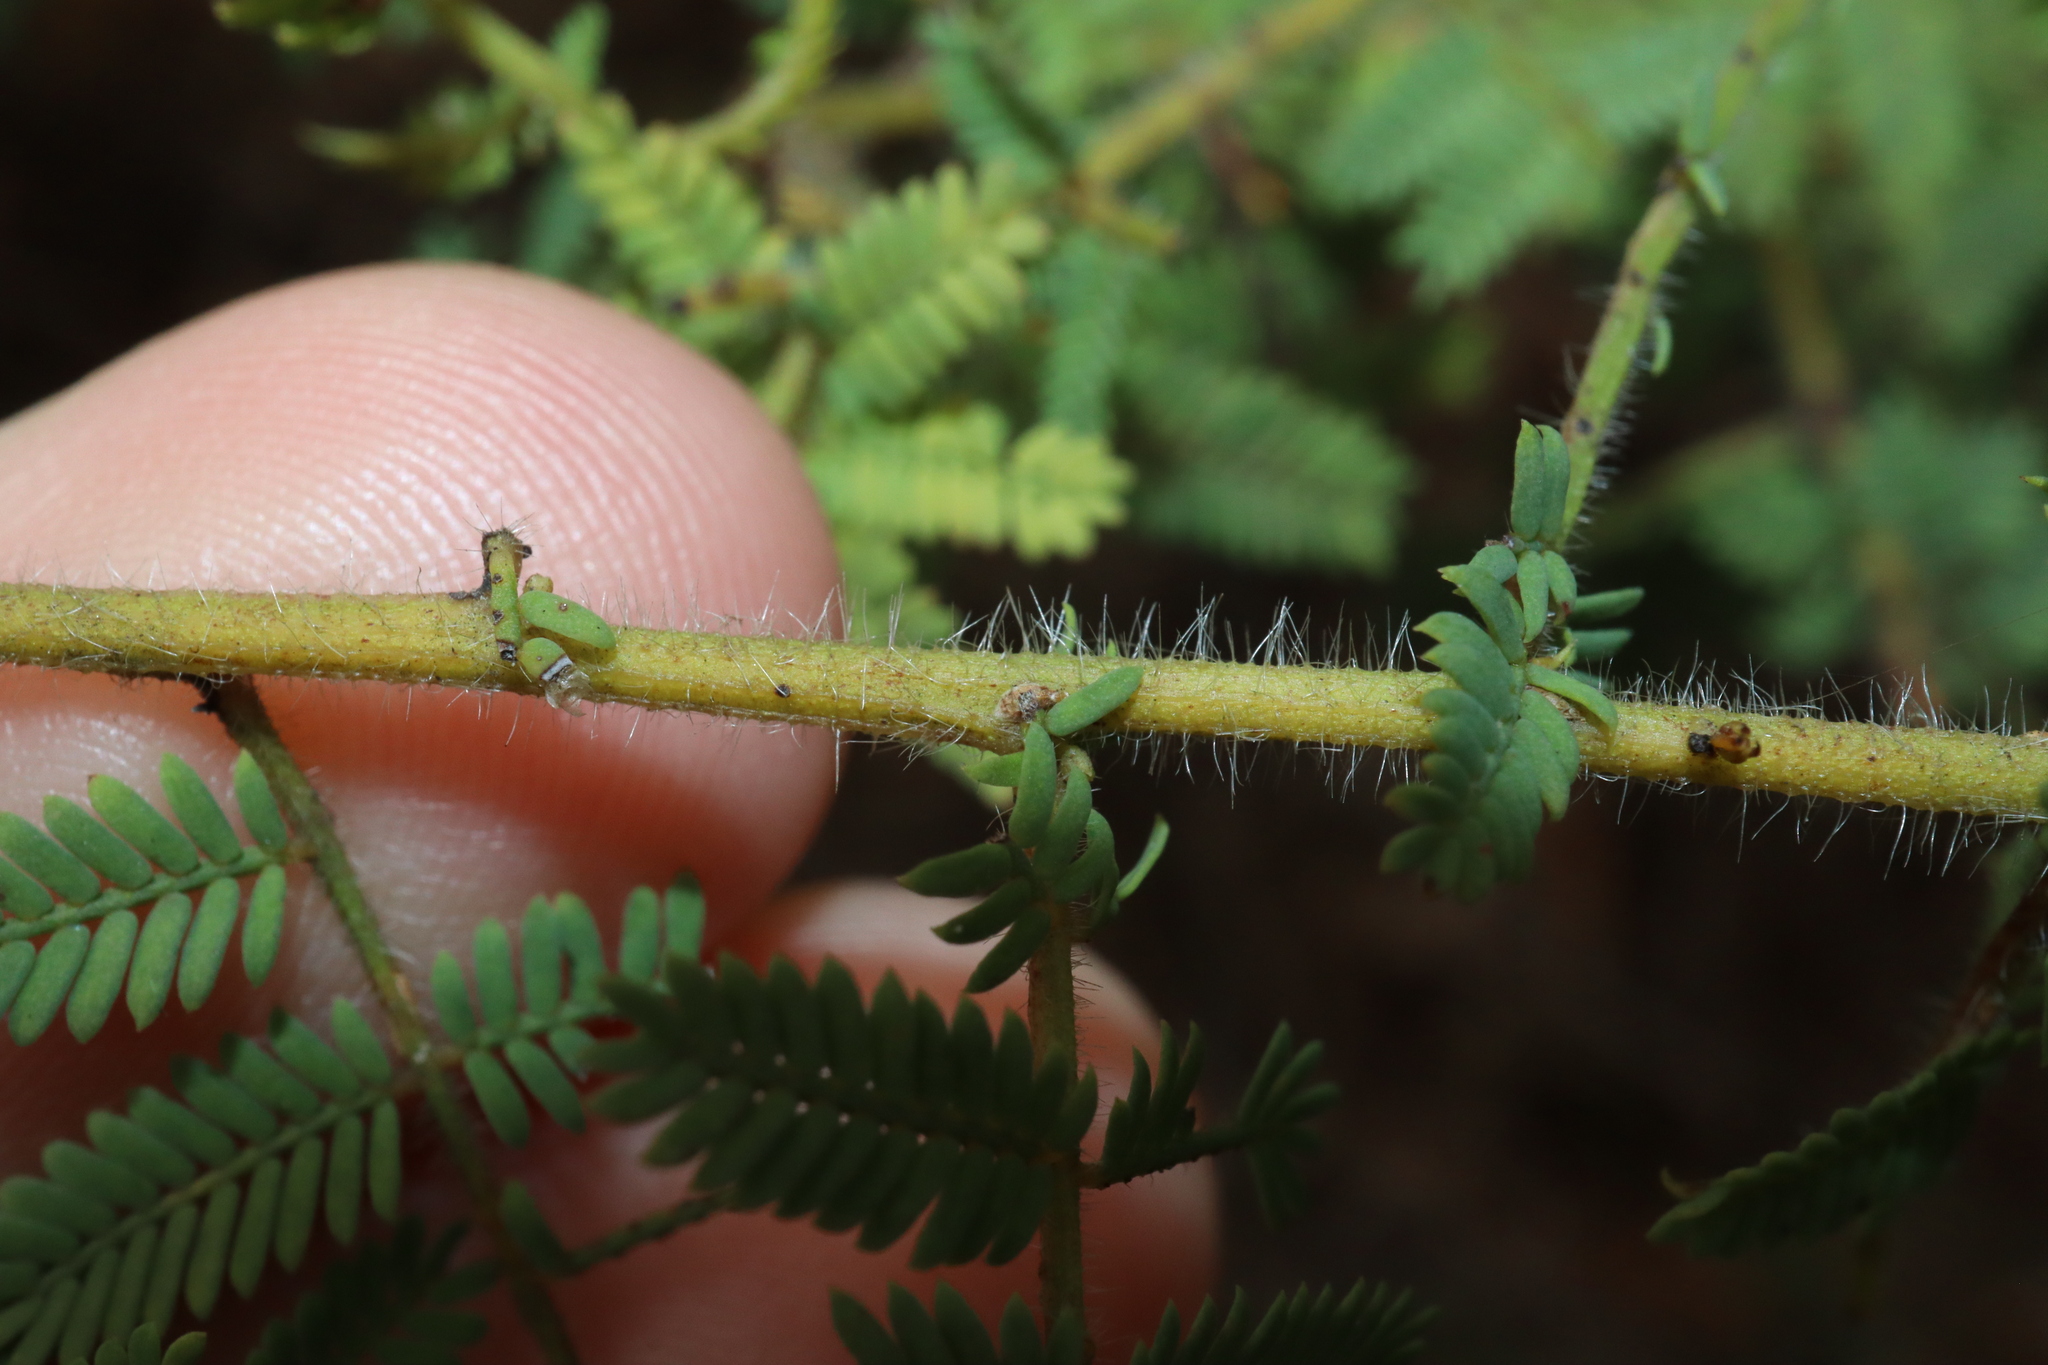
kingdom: Plantae
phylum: Tracheophyta
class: Magnoliopsida
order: Fabales
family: Fabaceae
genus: Acacia
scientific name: Acacia pubescens
